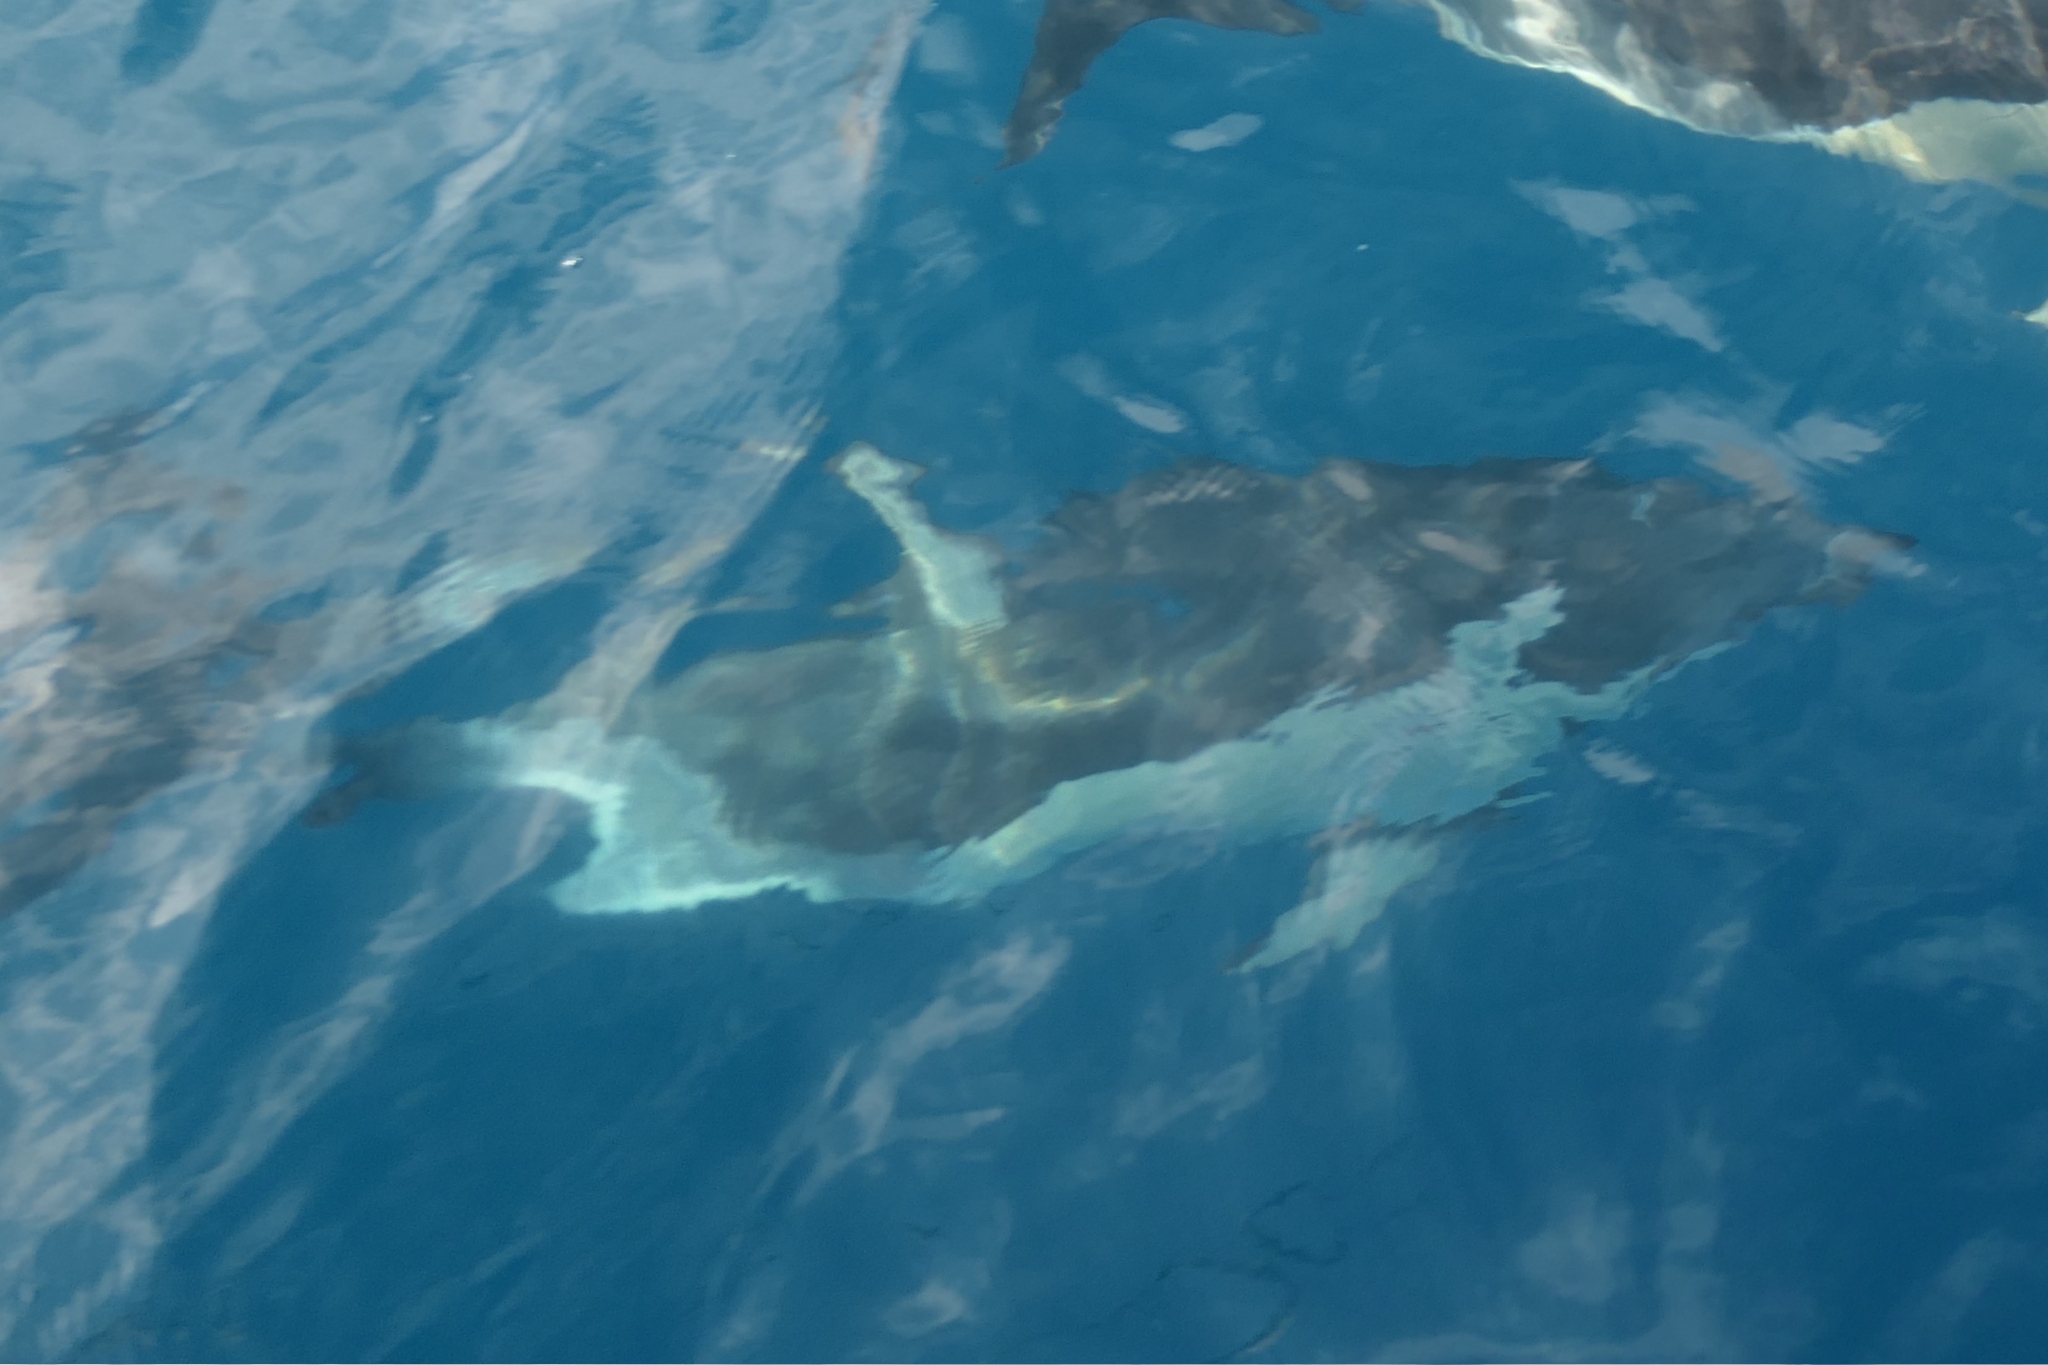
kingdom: Animalia
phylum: Chordata
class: Mammalia
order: Cetacea
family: Delphinidae
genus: Delphinus
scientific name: Delphinus delphis
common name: Common dolphin
